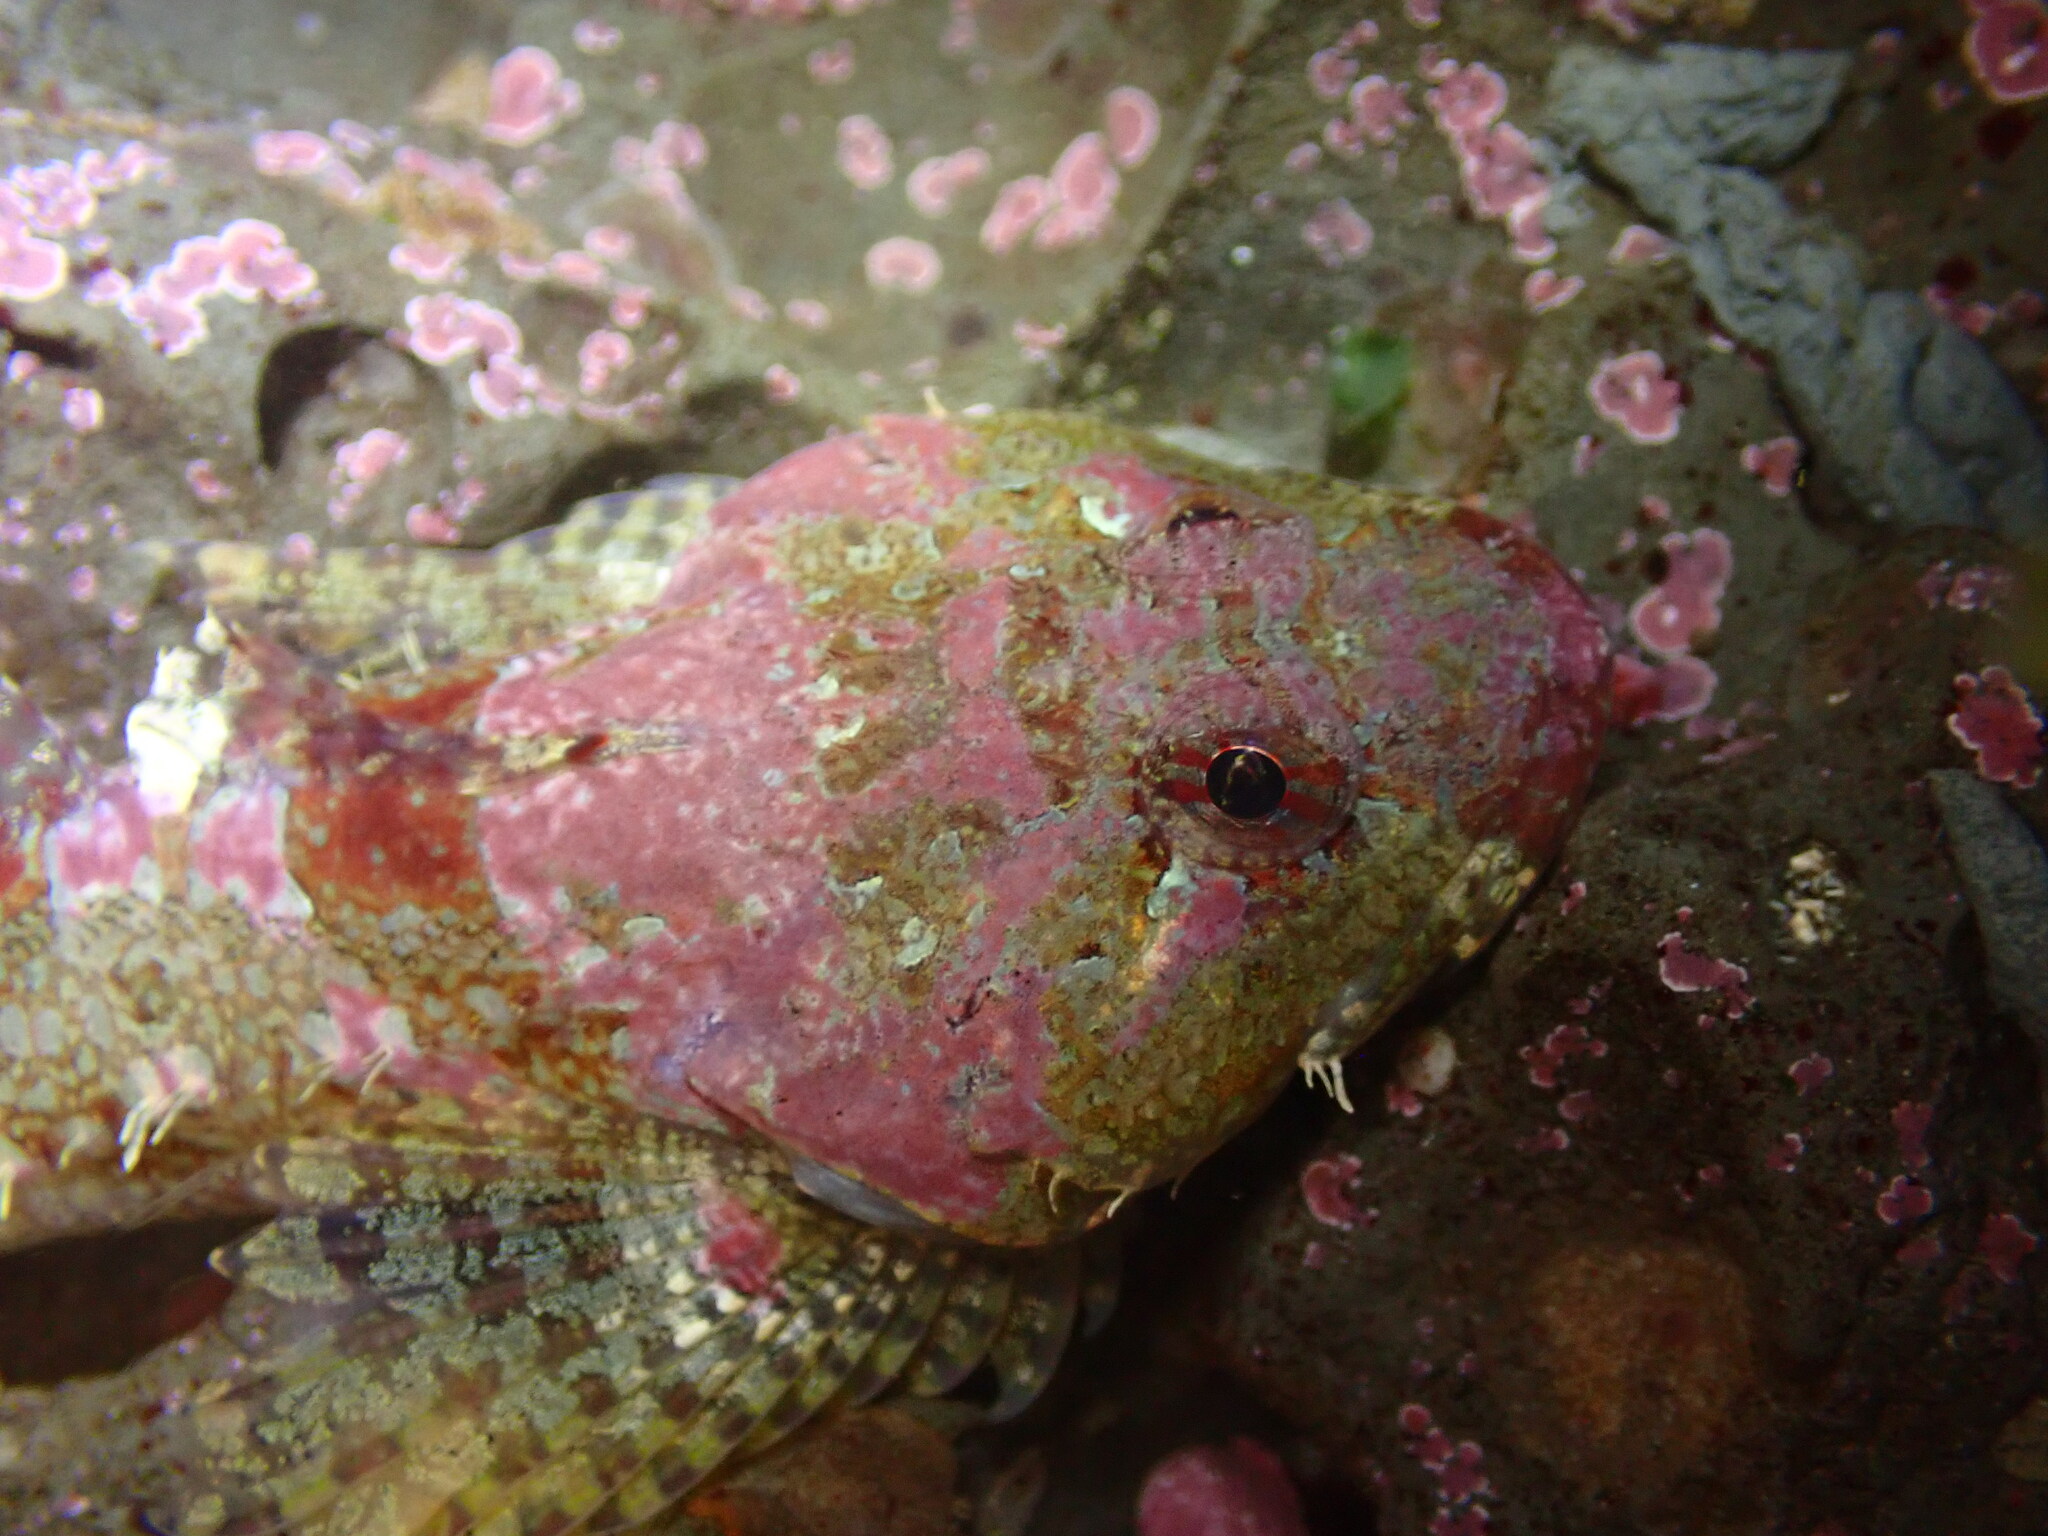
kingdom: Animalia
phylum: Chordata
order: Scorpaeniformes
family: Cottidae
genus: Artedius
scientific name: Artedius lateralis
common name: Smooth-head sculpin
